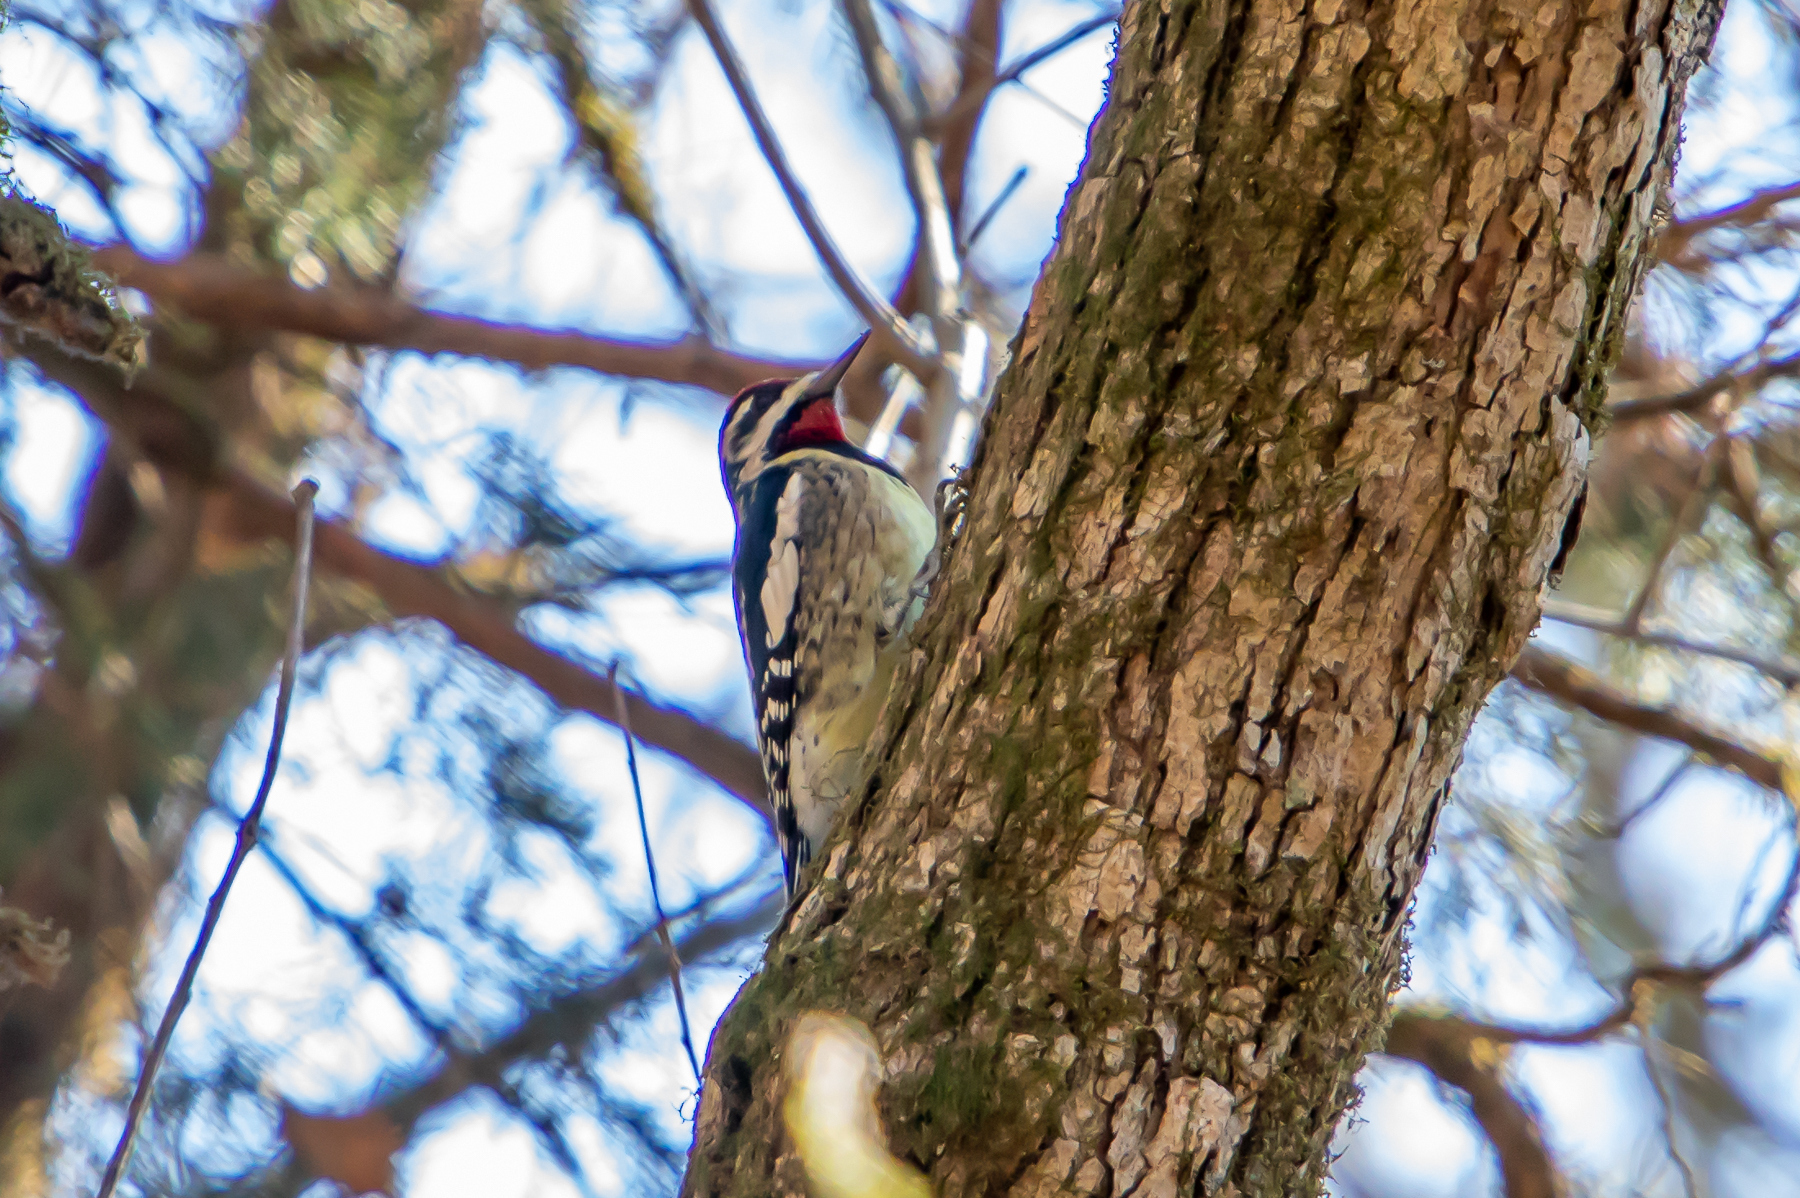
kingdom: Animalia
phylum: Chordata
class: Aves
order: Piciformes
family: Picidae
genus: Sphyrapicus
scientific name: Sphyrapicus varius
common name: Yellow-bellied sapsucker
